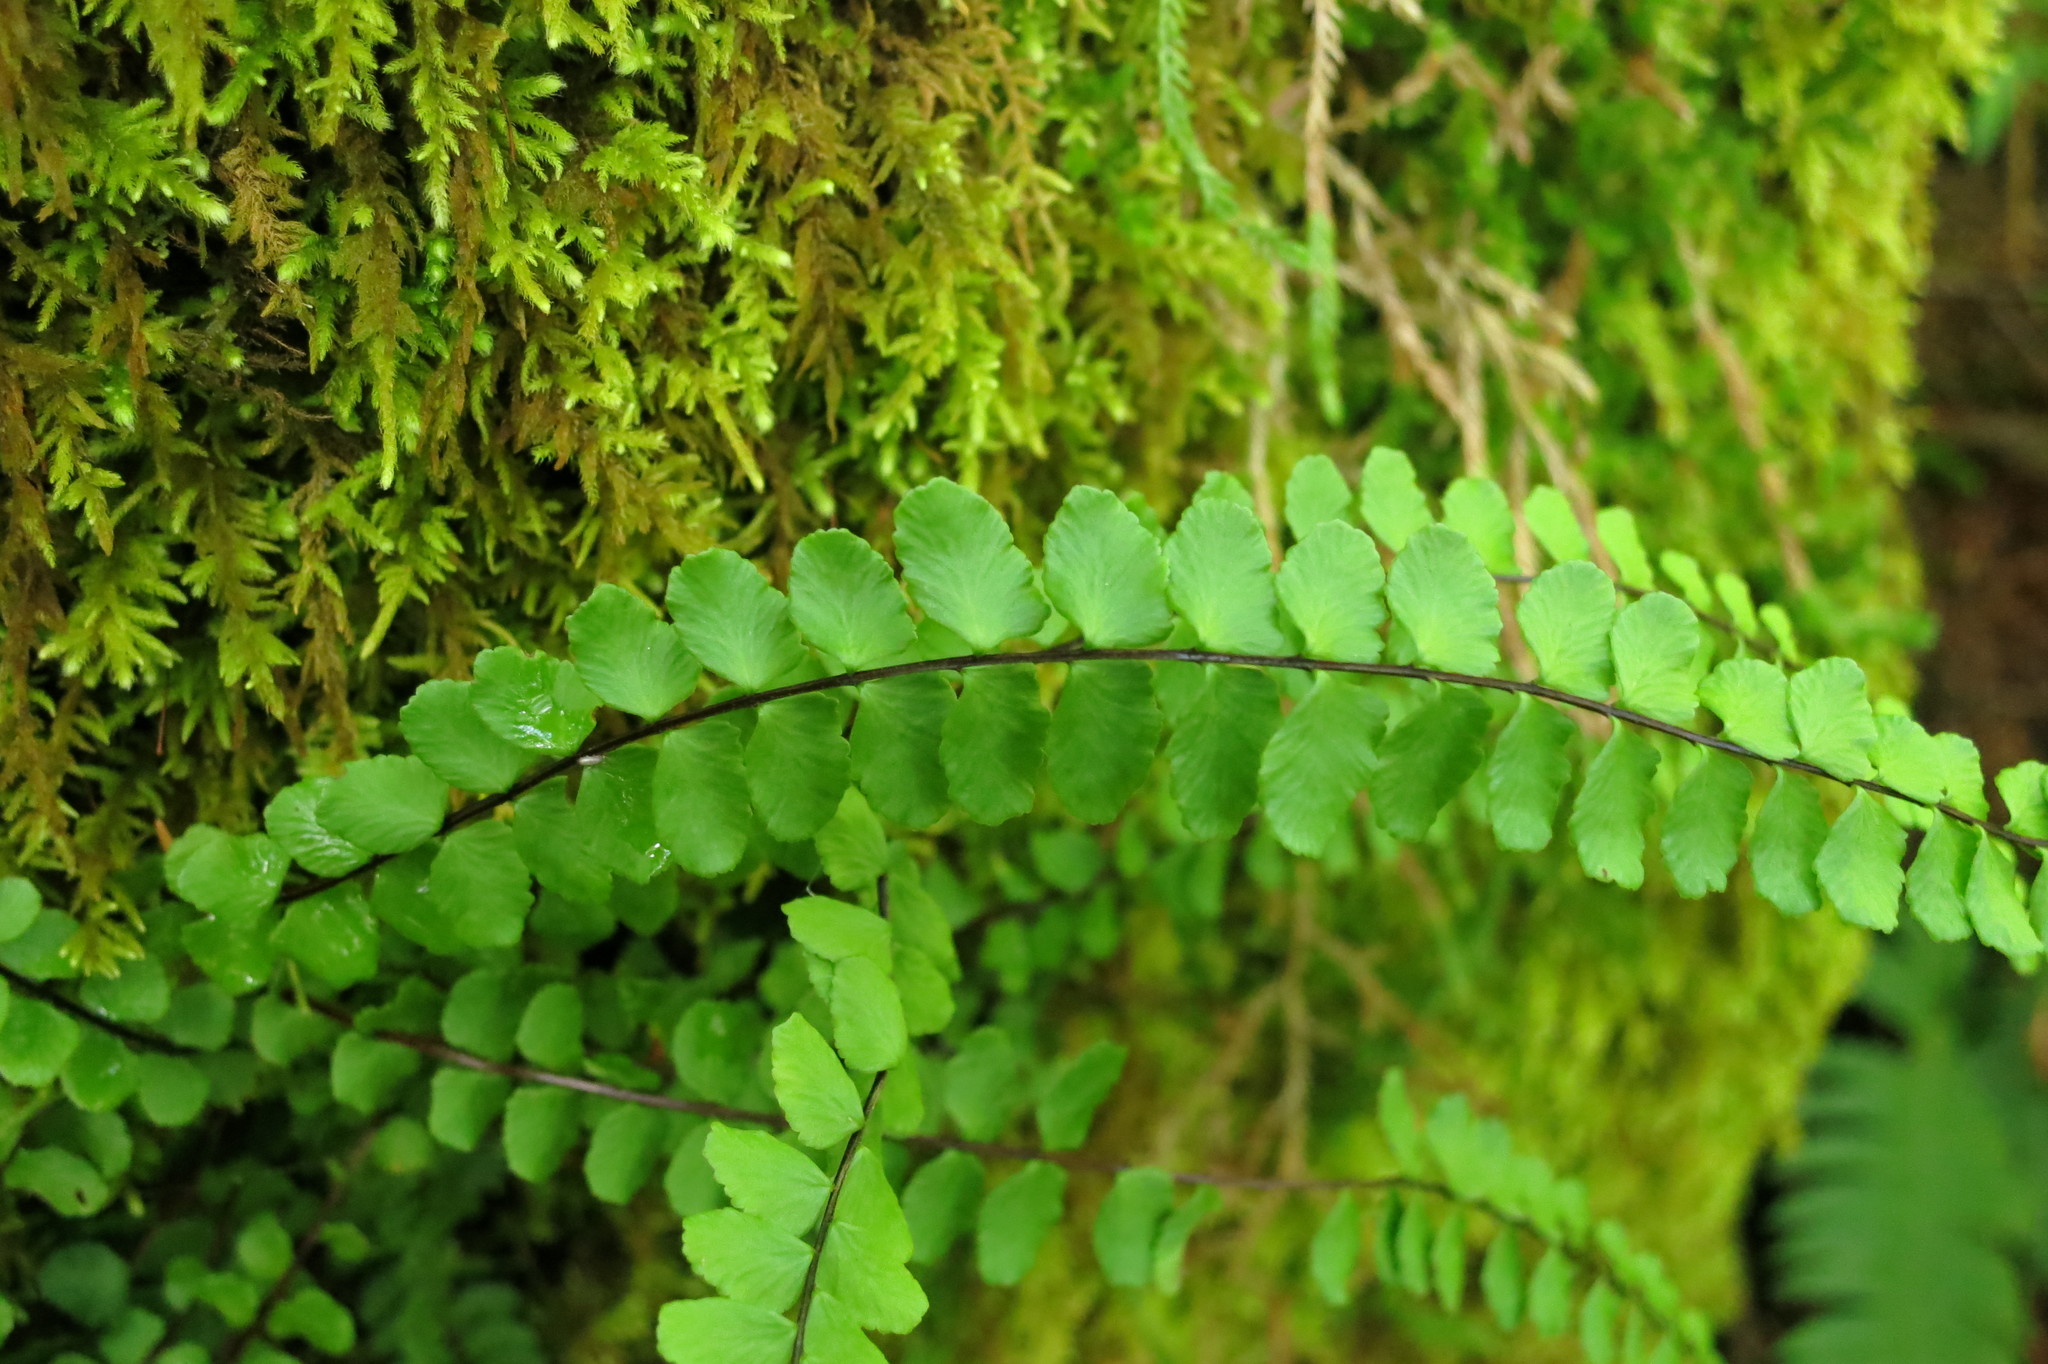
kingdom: Plantae
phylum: Tracheophyta
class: Polypodiopsida
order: Polypodiales
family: Aspleniaceae
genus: Asplenium
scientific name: Asplenium trichomanes
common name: Maidenhair spleenwort
